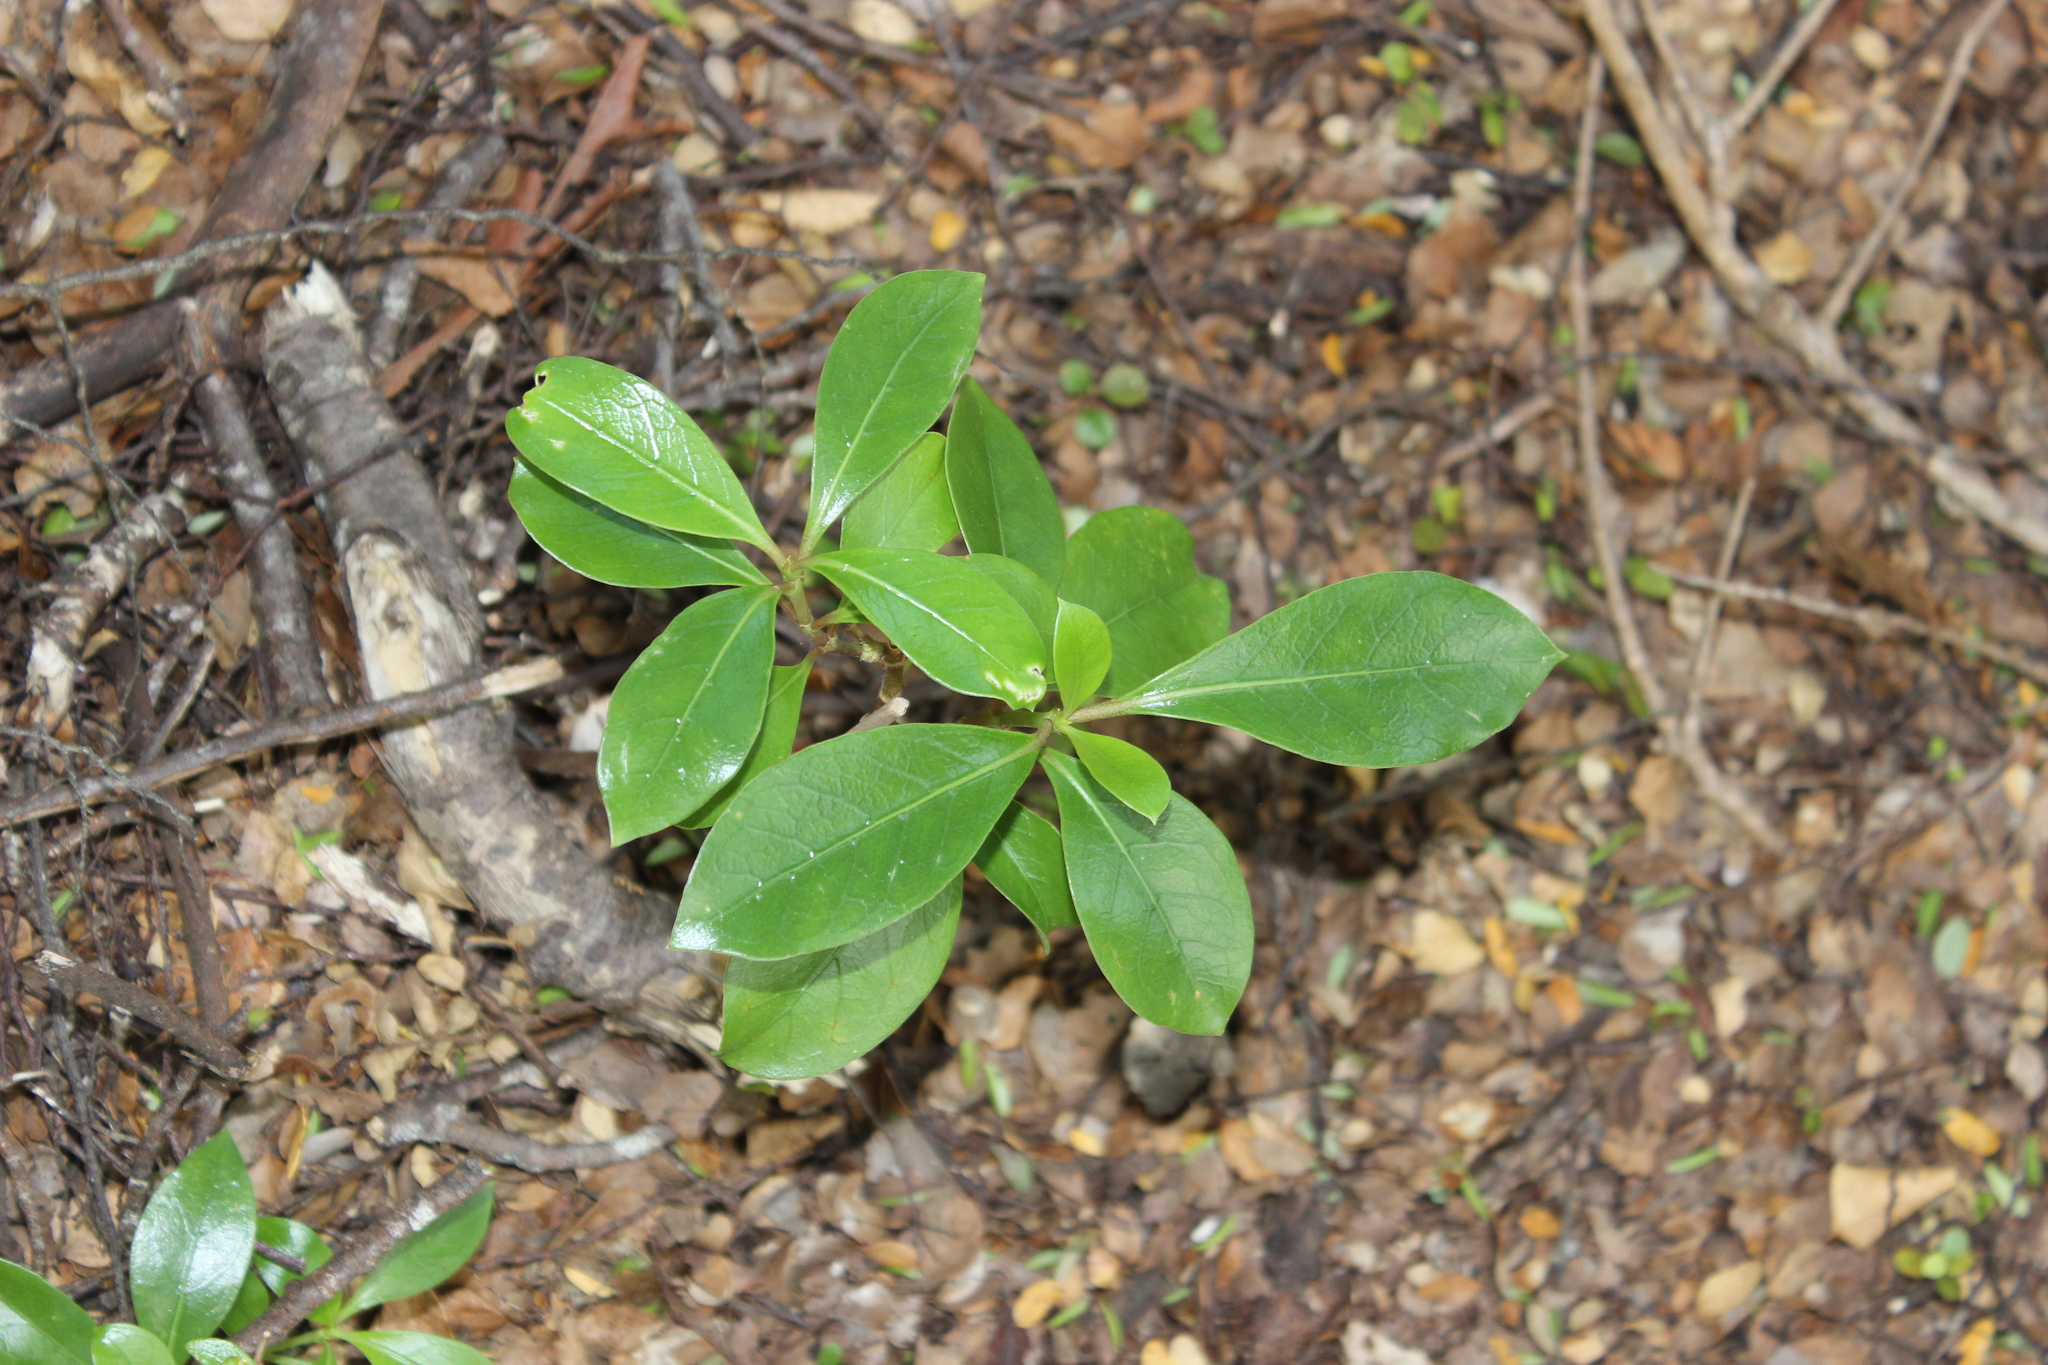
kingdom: Plantae
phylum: Tracheophyta
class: Magnoliopsida
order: Gentianales
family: Rubiaceae
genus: Coprosma
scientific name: Coprosma lucida
